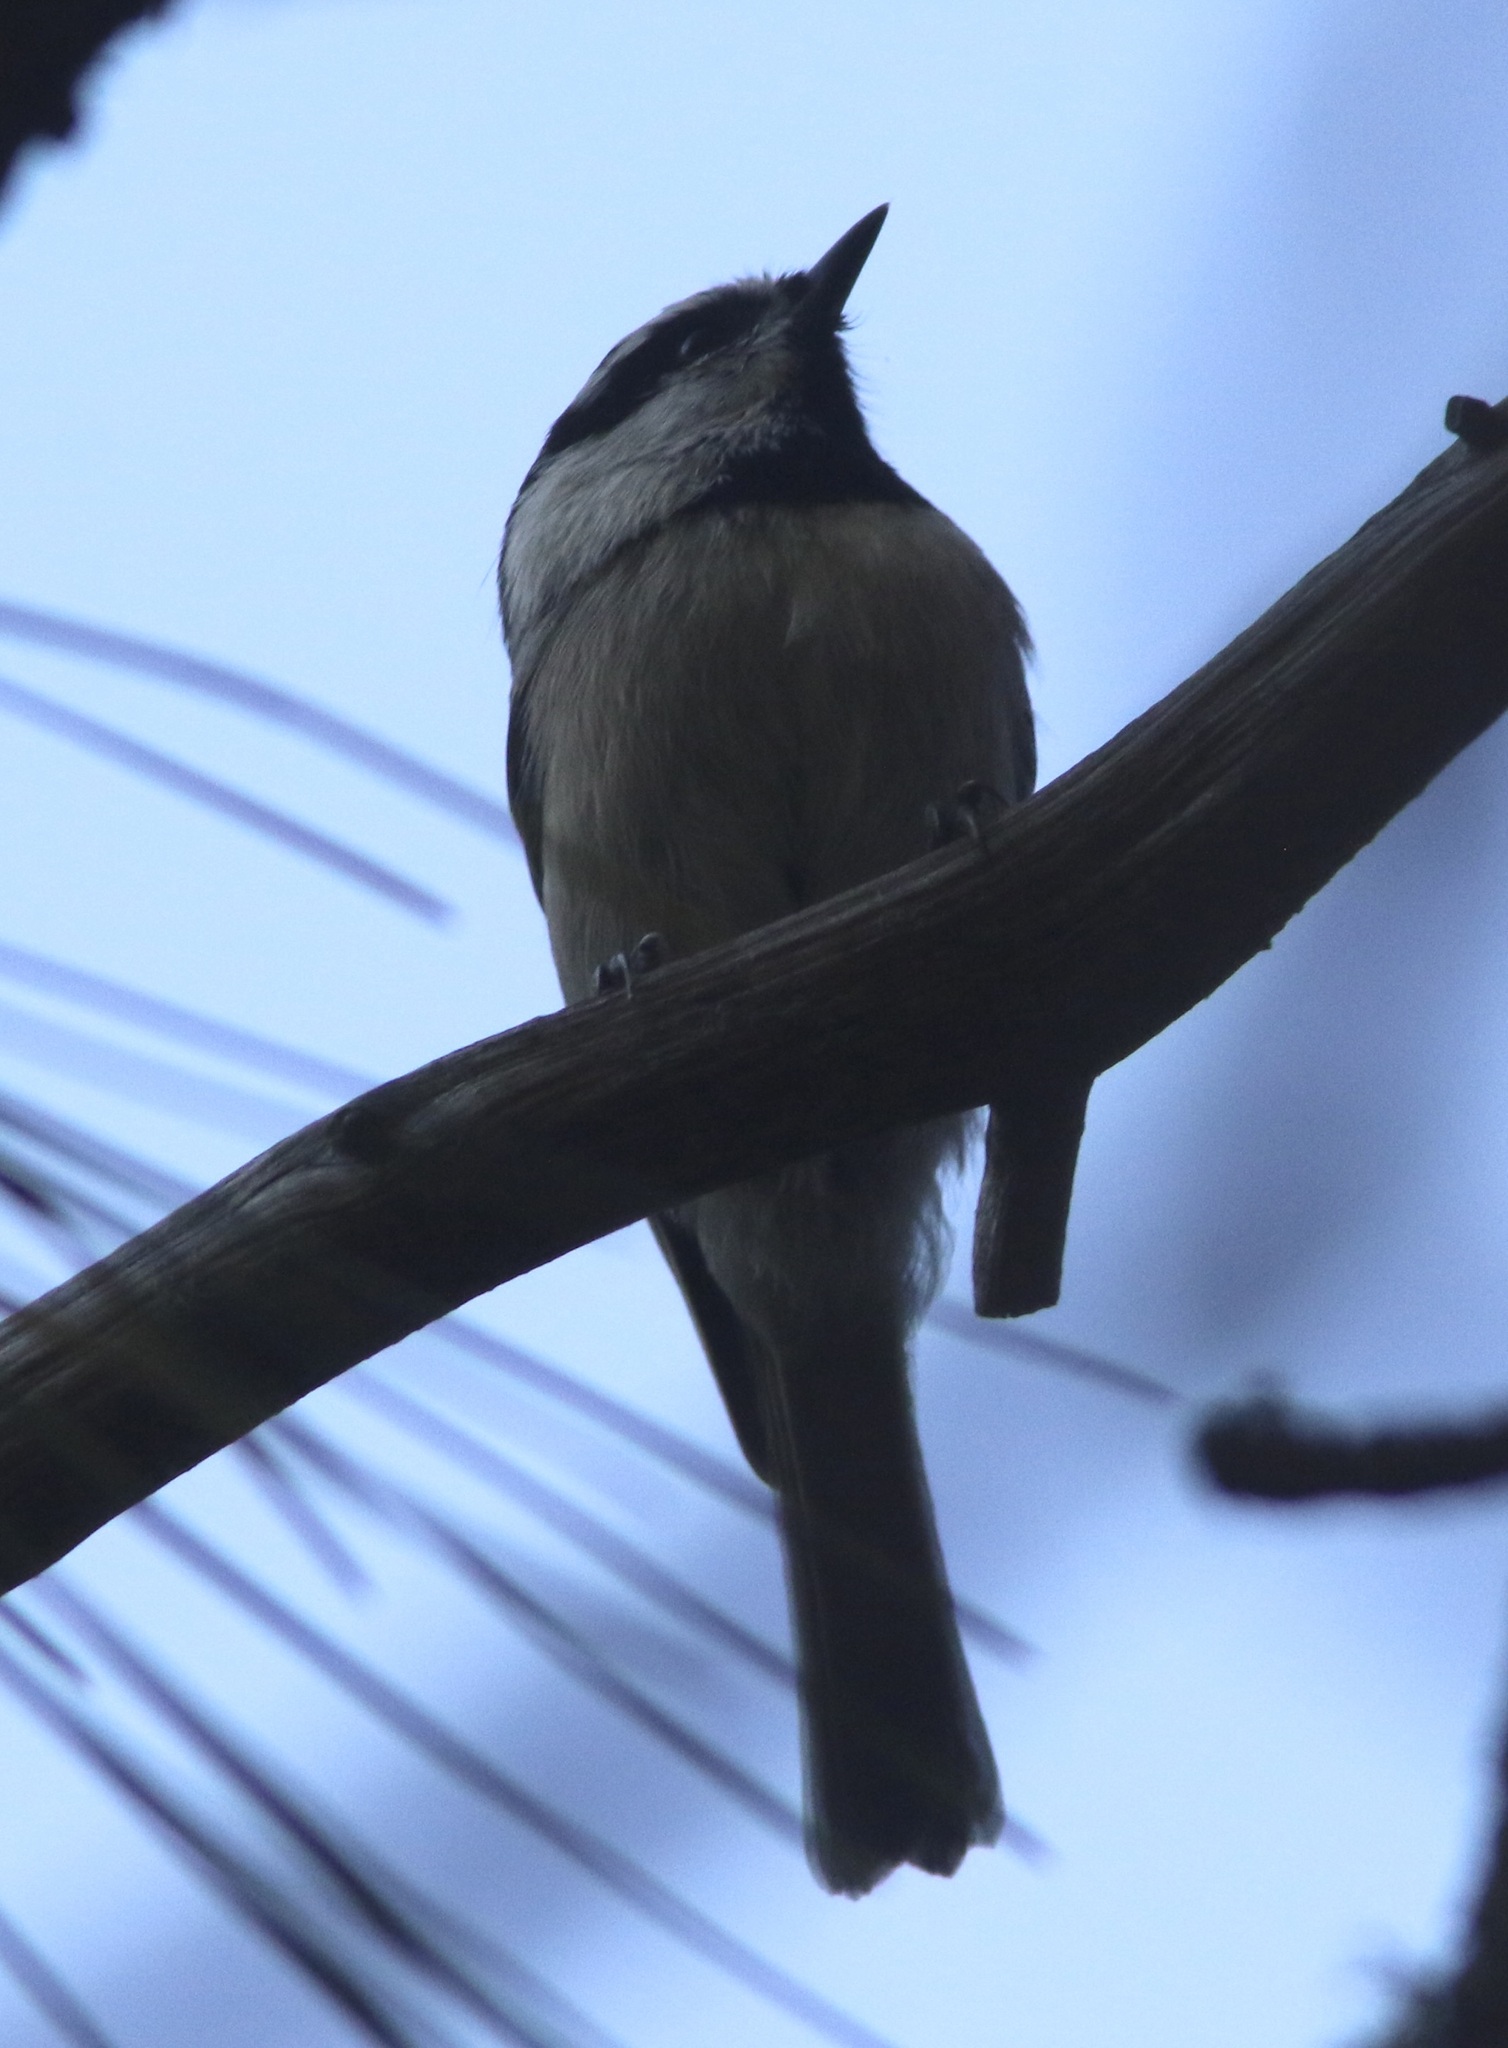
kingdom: Animalia
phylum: Chordata
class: Aves
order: Passeriformes
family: Paridae
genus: Poecile
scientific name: Poecile gambeli
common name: Mountain chickadee
